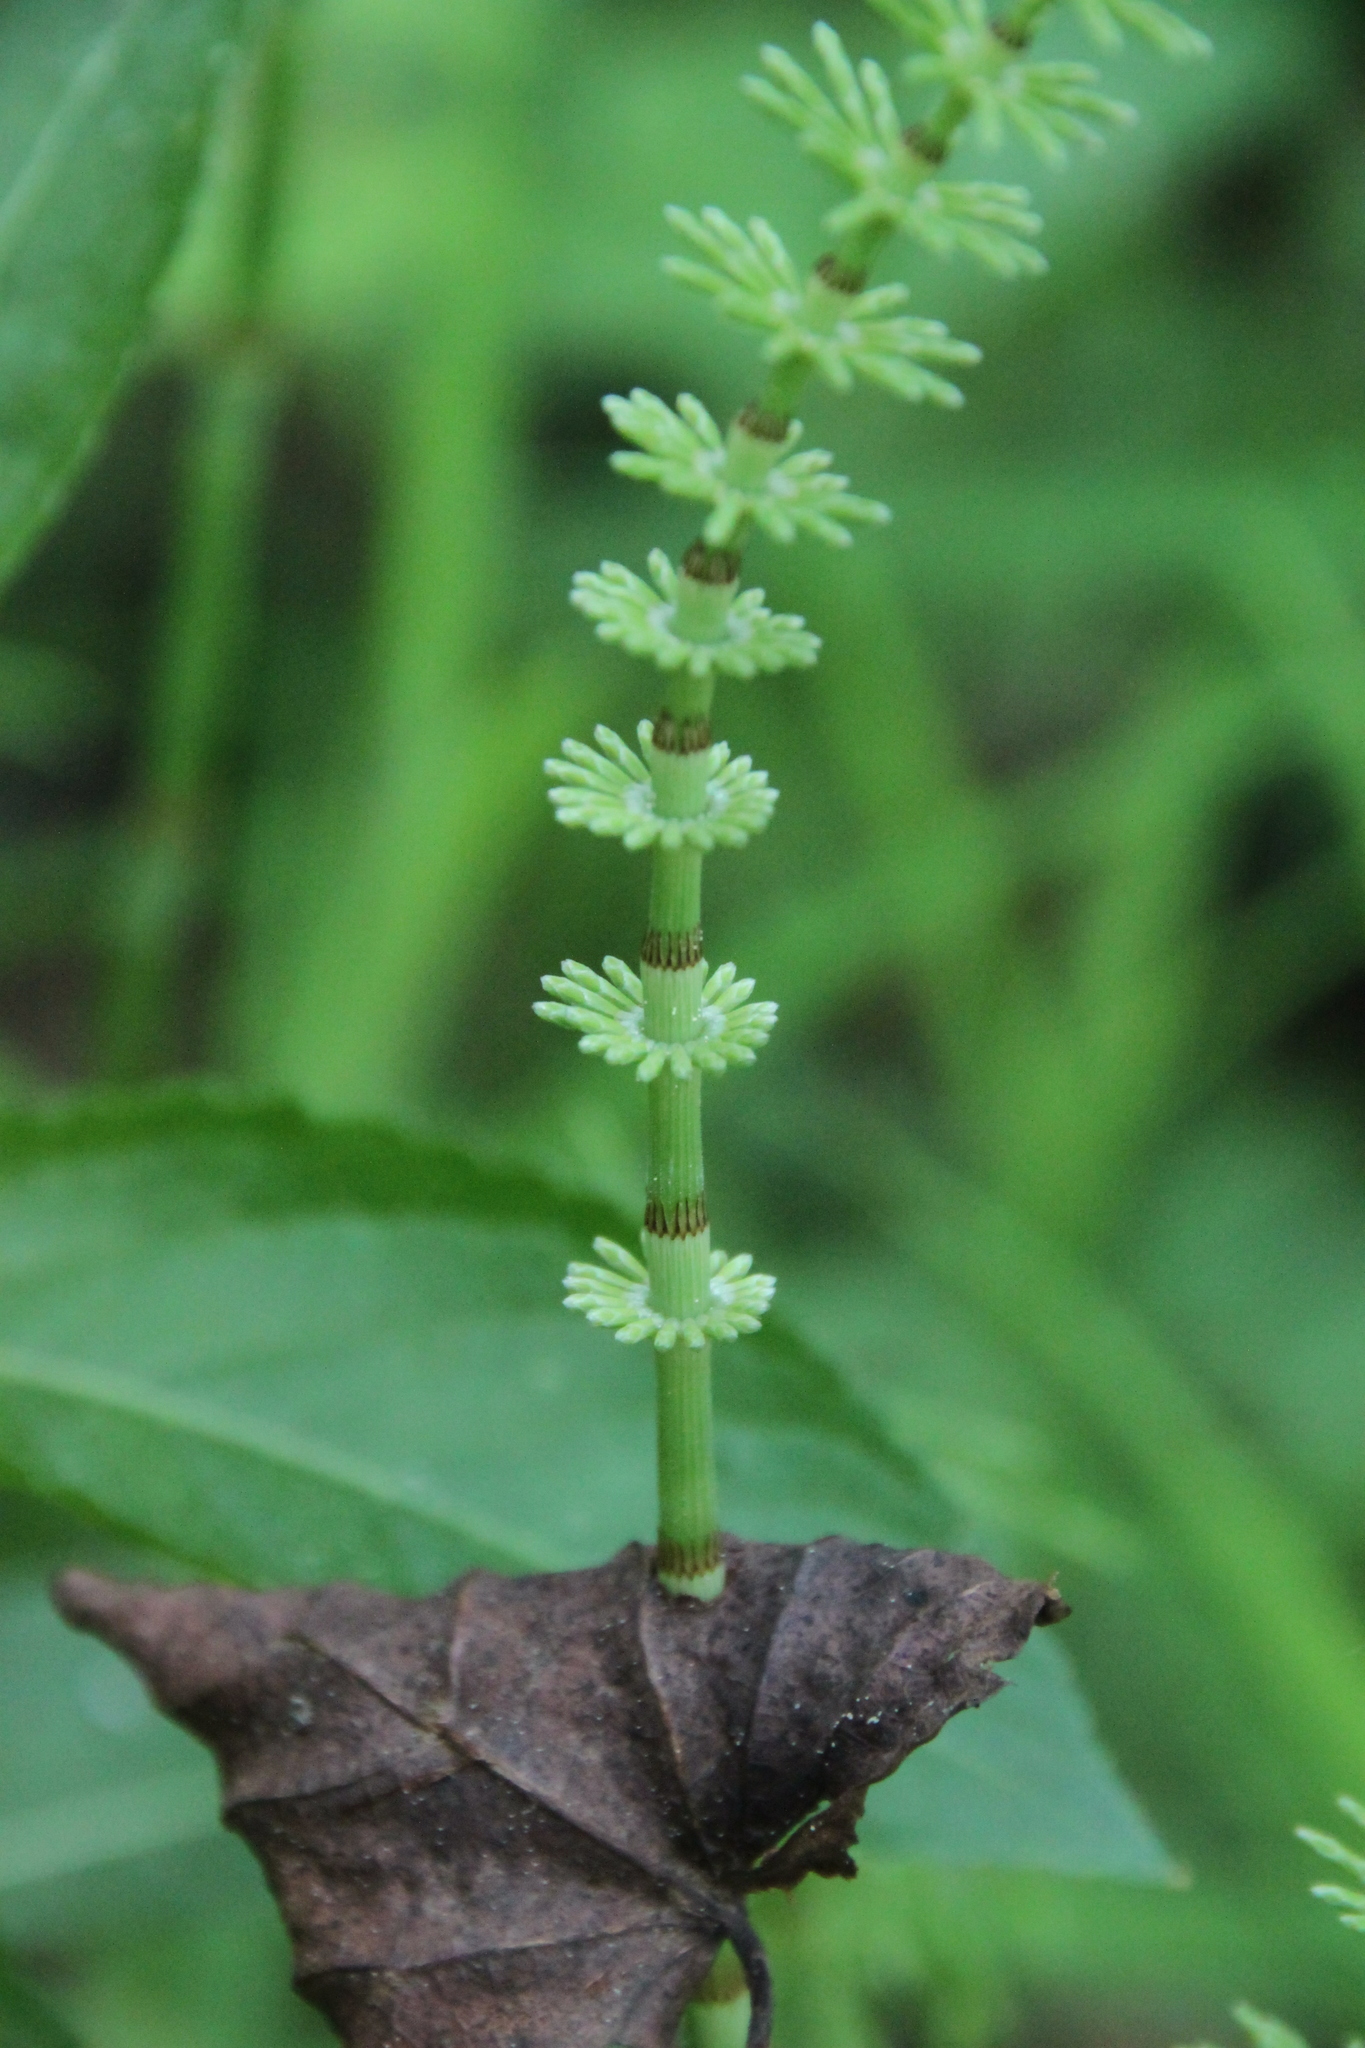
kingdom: Plantae
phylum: Tracheophyta
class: Polypodiopsida
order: Equisetales
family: Equisetaceae
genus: Equisetum
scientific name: Equisetum pratense
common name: Meadow horsetail
